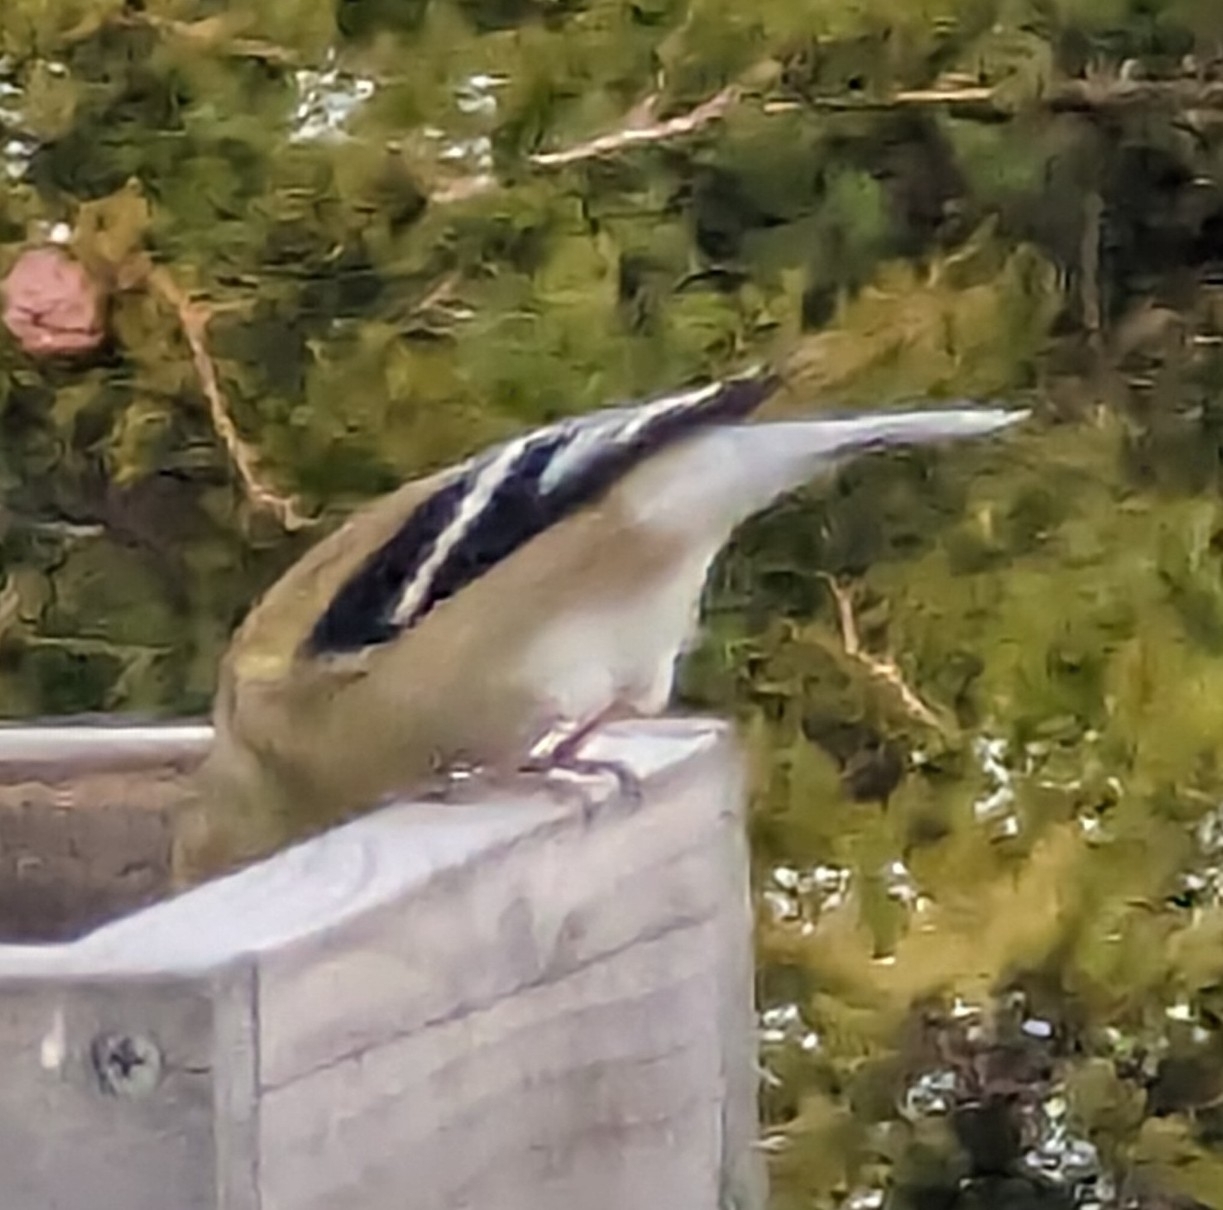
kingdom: Animalia
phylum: Chordata
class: Aves
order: Passeriformes
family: Fringillidae
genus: Spinus
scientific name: Spinus tristis
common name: American goldfinch
